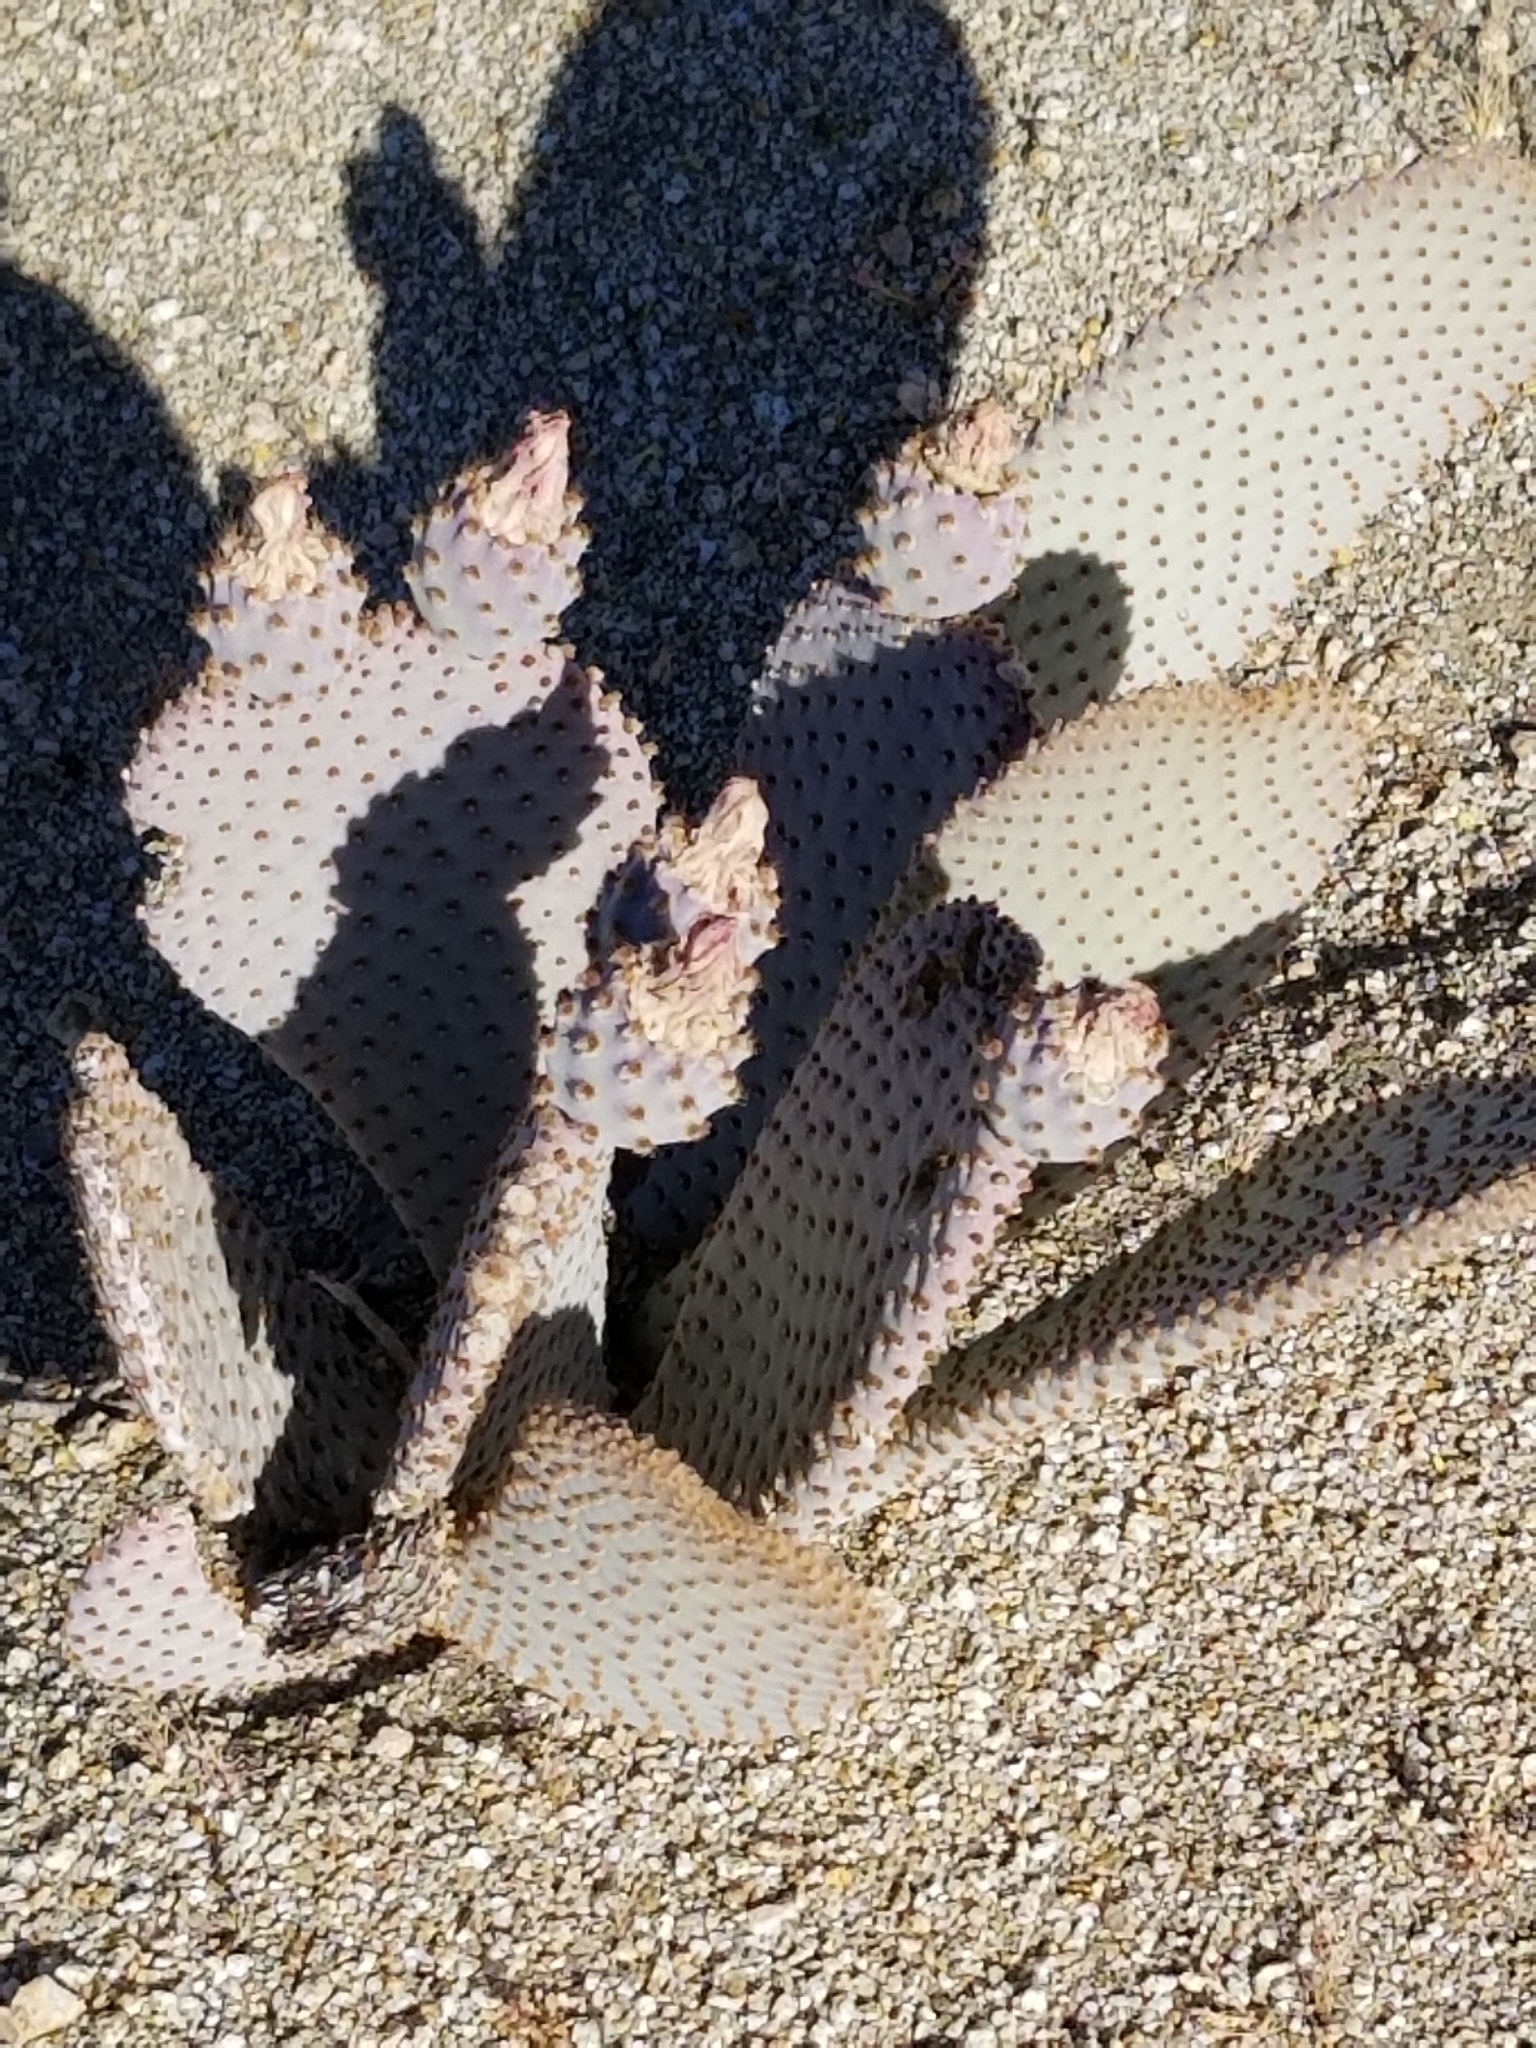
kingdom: Plantae
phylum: Tracheophyta
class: Magnoliopsida
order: Caryophyllales
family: Cactaceae
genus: Opuntia
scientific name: Opuntia basilaris
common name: Beavertail prickly-pear
